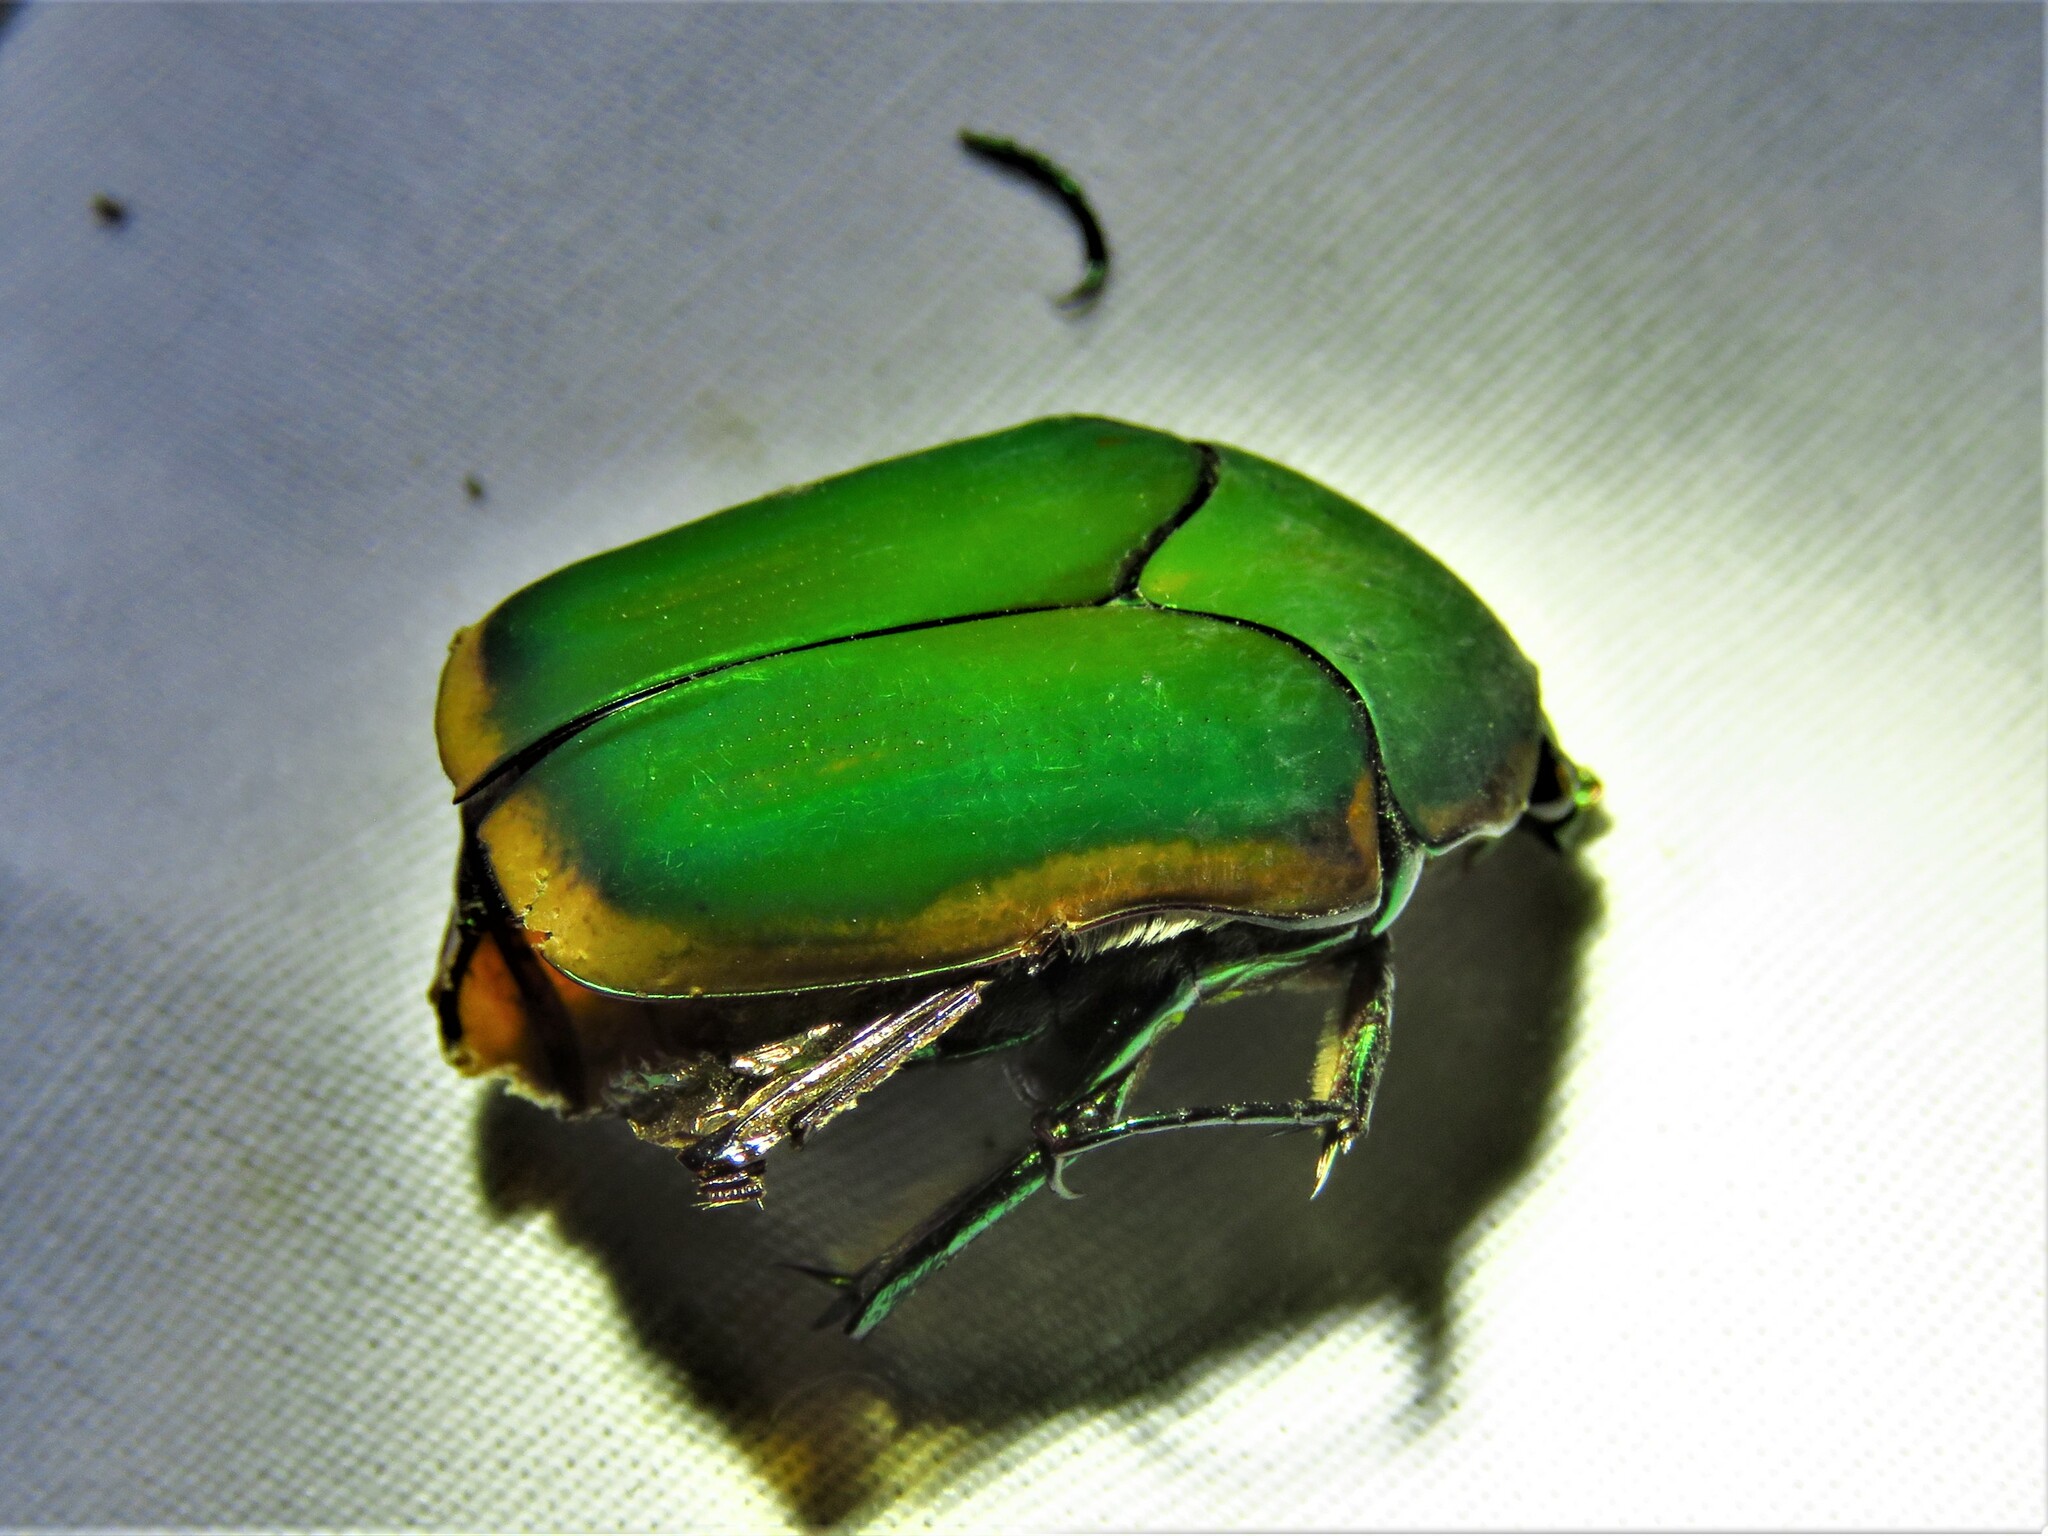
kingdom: Animalia
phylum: Arthropoda
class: Insecta
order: Coleoptera
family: Scarabaeidae
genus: Cotinis
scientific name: Cotinis nitida
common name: Common green june beetle
